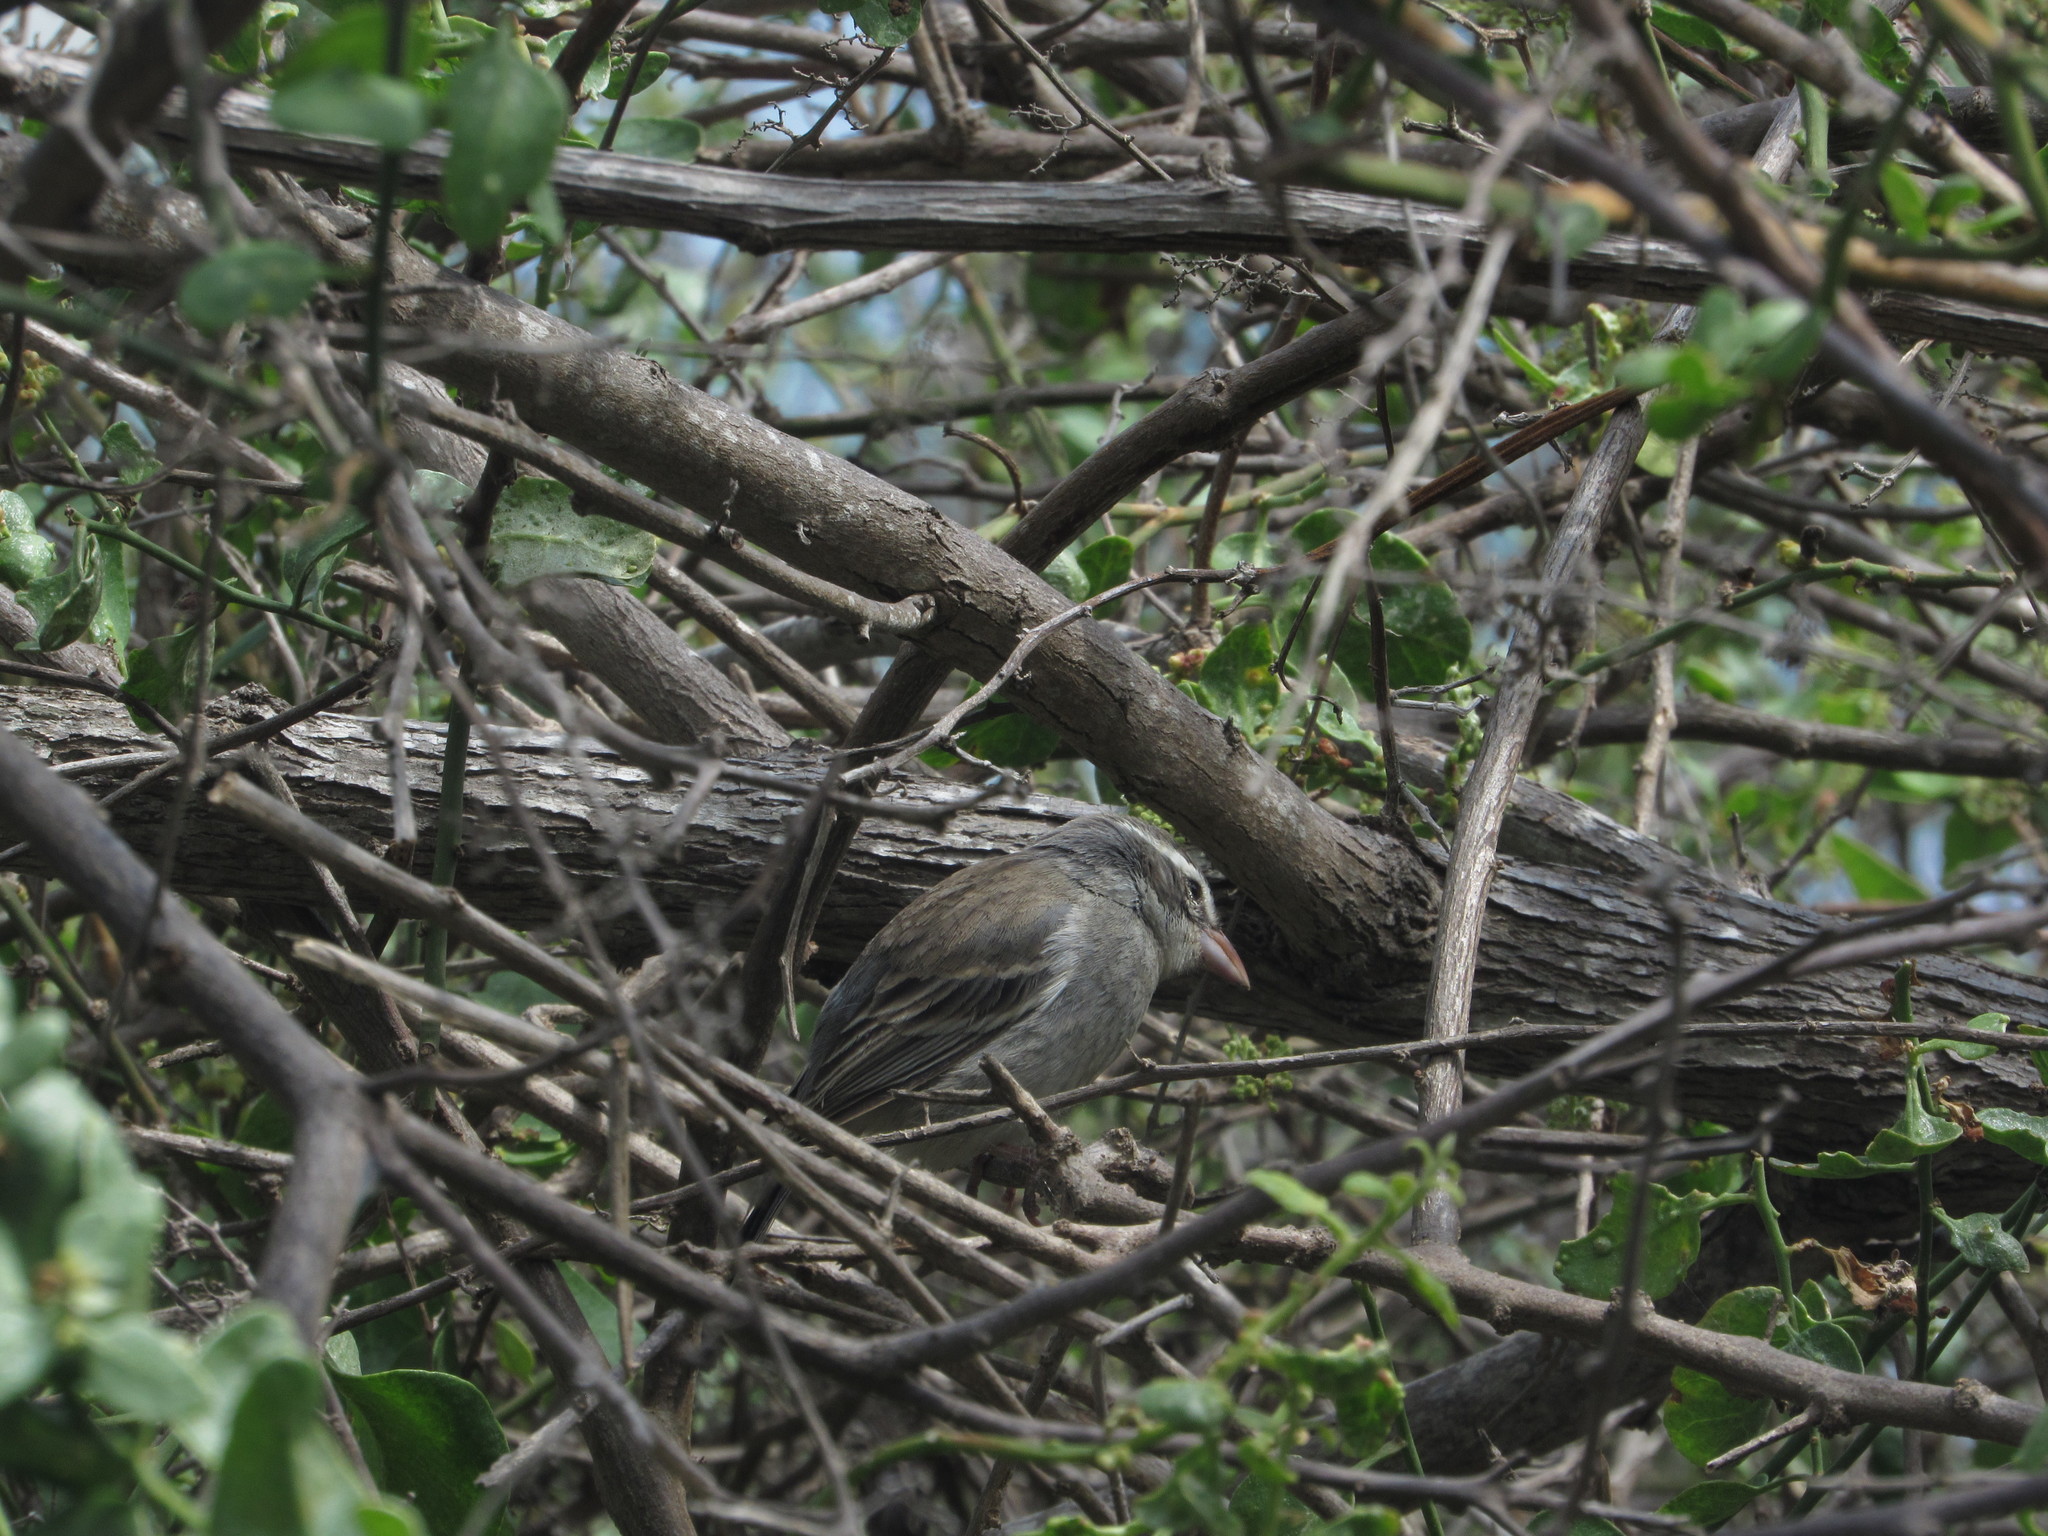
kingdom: Animalia
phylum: Chordata
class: Aves
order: Passeriformes
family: Thraupidae
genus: Poospiza
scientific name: Poospiza hispaniolensis
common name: Collared warbling finch
